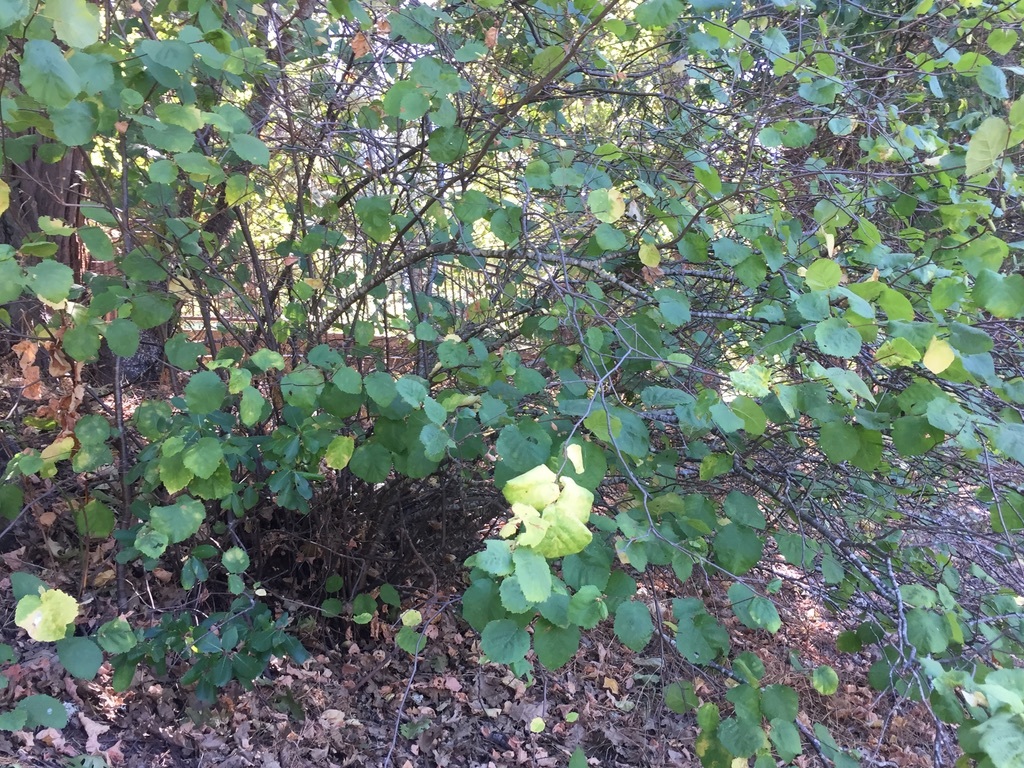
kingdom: Plantae
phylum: Tracheophyta
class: Magnoliopsida
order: Fagales
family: Betulaceae
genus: Corylus
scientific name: Corylus cornuta
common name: Beaked hazel
